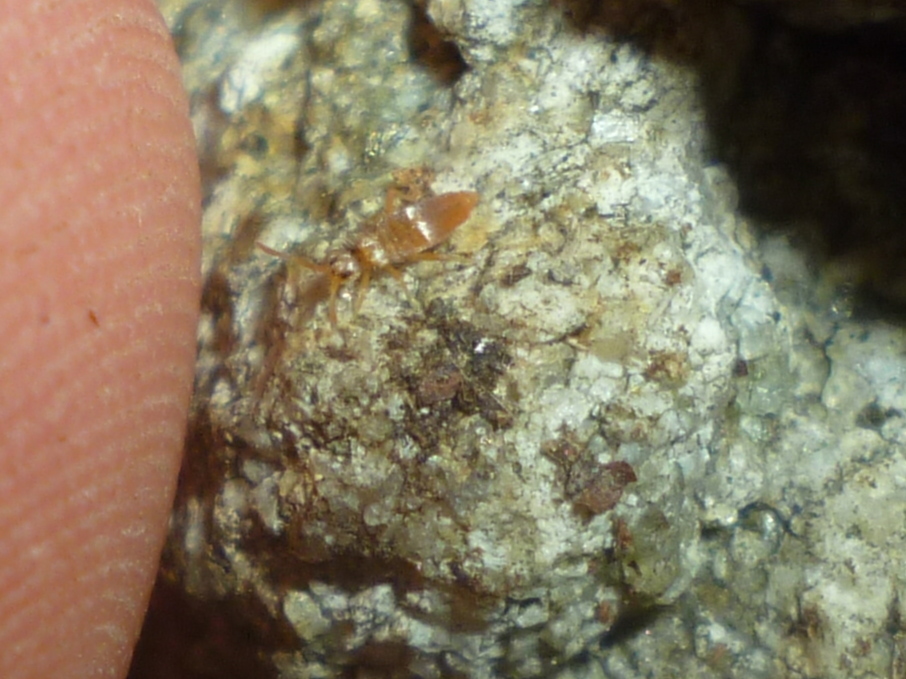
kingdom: Animalia
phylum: Arthropoda
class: Collembola
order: Entomobryomorpha
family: Entomobryidae
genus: Entomobrya
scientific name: Entomobrya atrocincta
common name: Springtail
